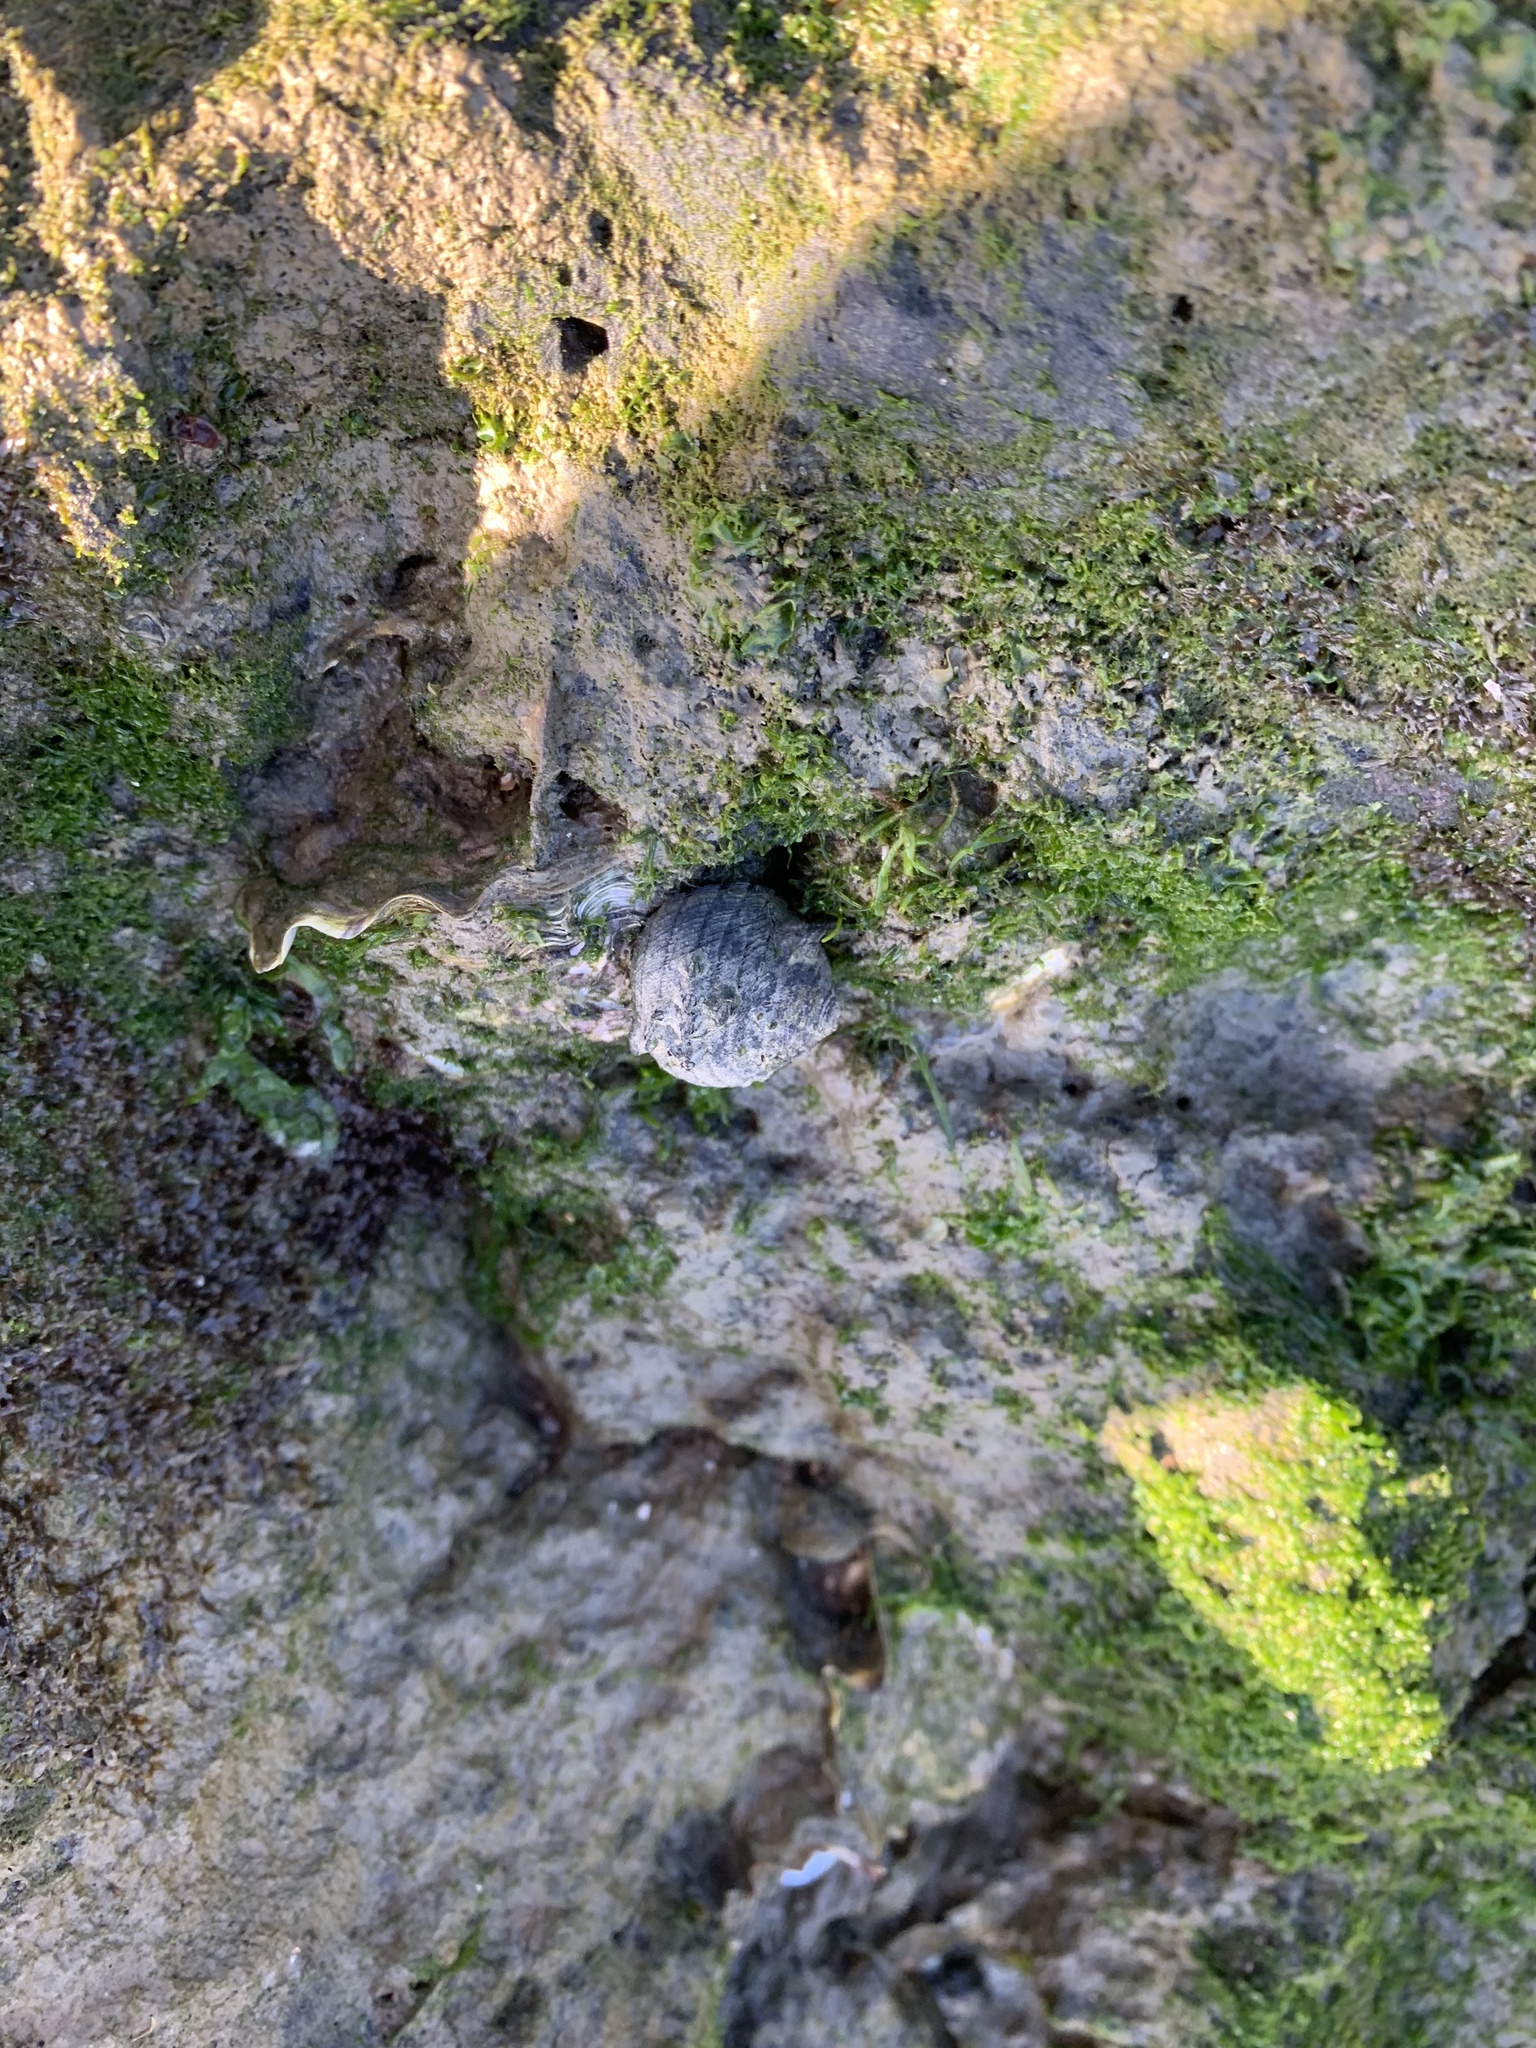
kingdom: Animalia
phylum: Mollusca
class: Gastropoda
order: Trochida
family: Trochidae
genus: Diloma
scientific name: Diloma aethiops
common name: Scorched monodont
